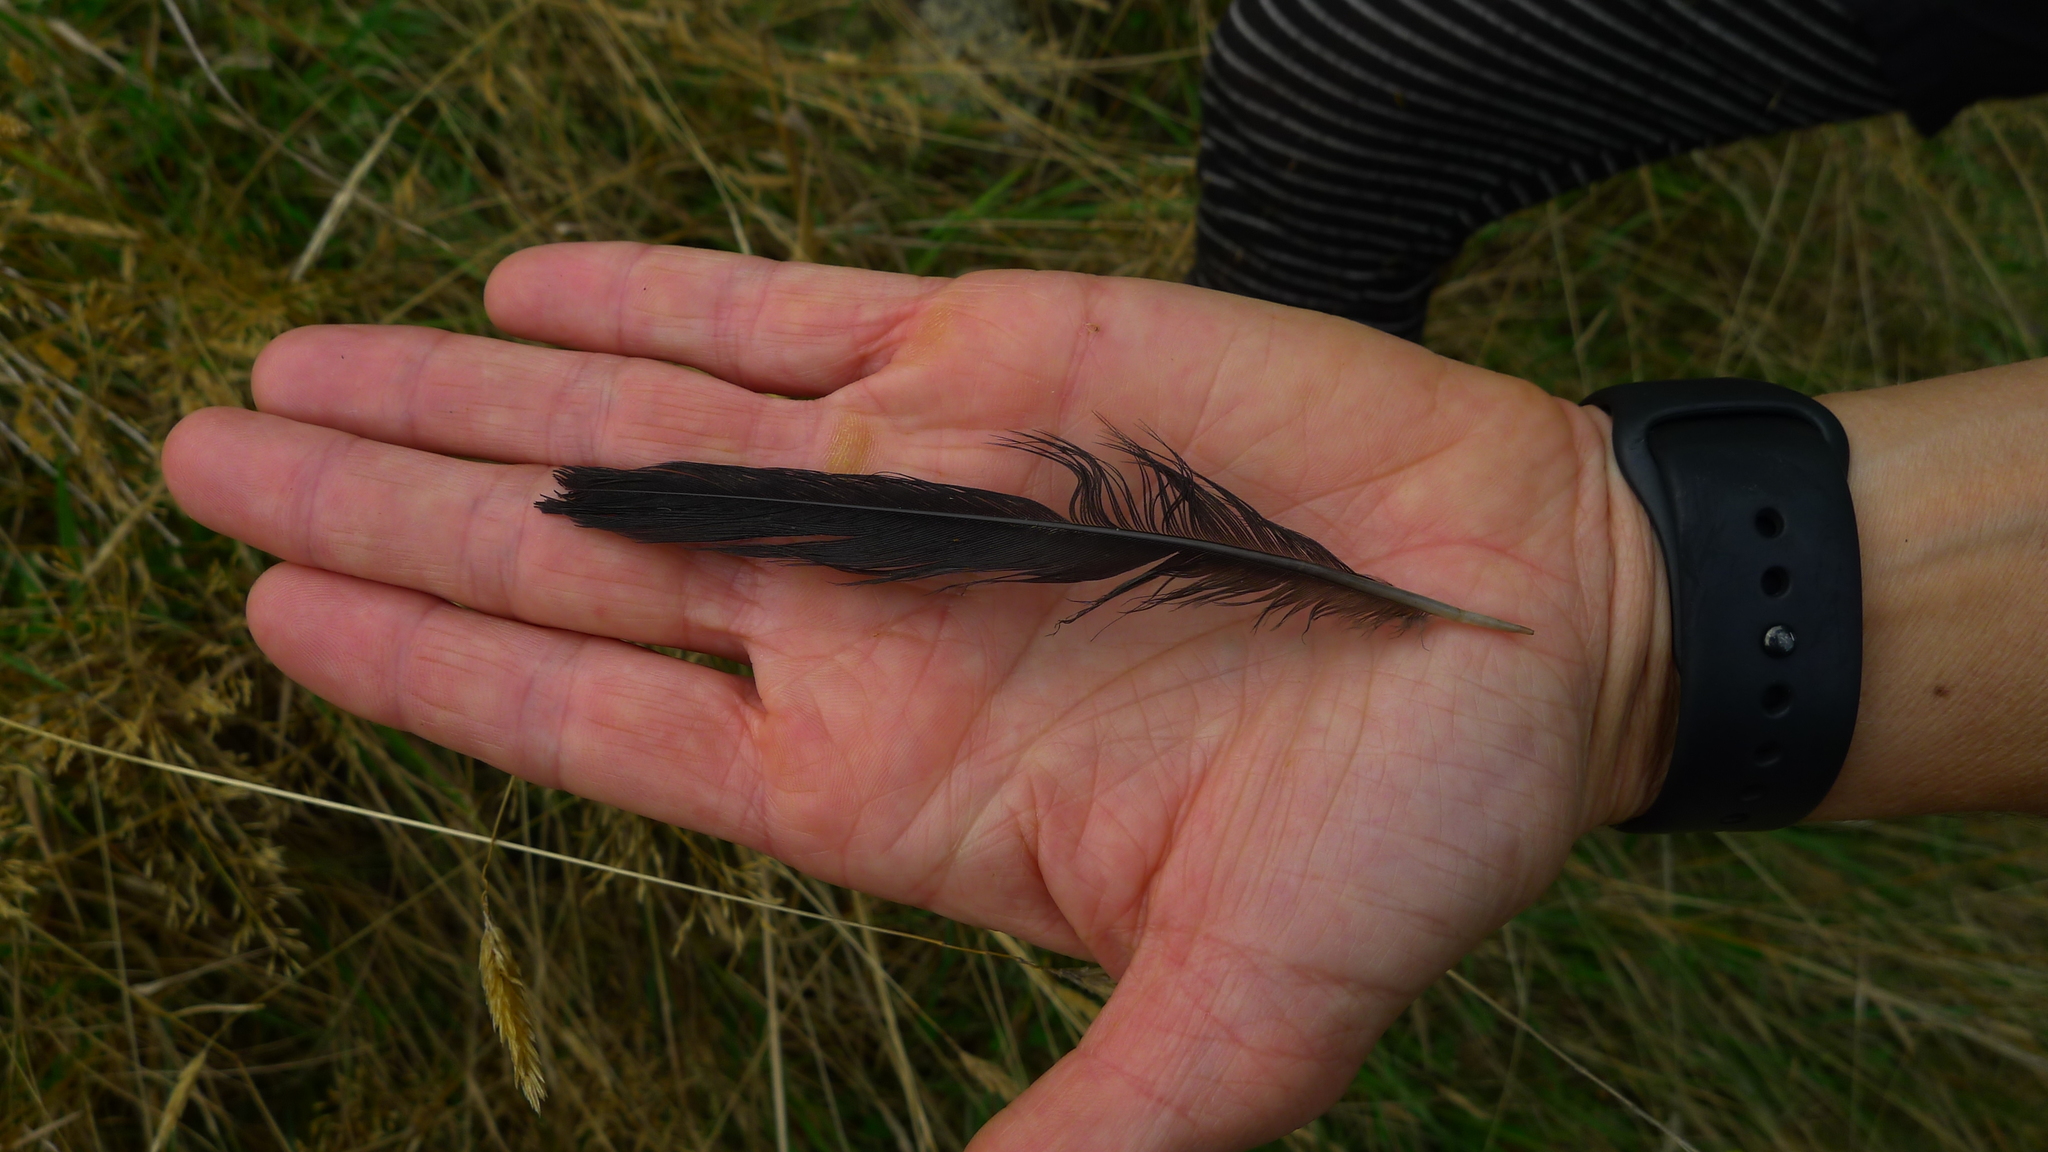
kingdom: Animalia
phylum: Chordata
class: Aves
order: Passeriformes
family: Meliphagidae
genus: Prosthemadera
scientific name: Prosthemadera novaeseelandiae
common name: Tui
